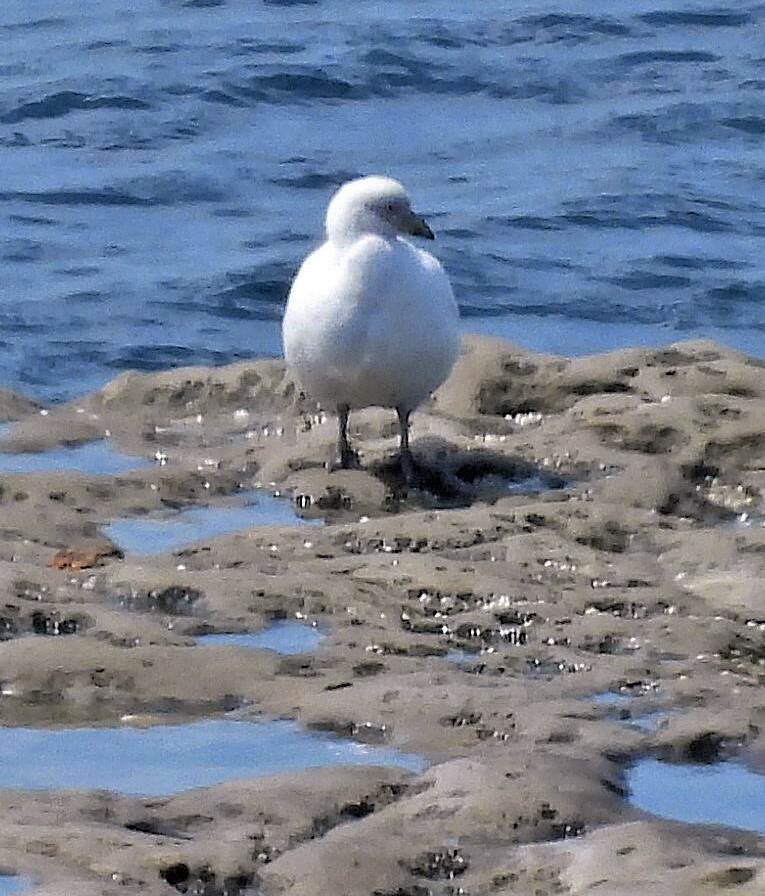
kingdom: Animalia
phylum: Chordata
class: Aves
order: Charadriiformes
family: Chionidae
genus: Chionis
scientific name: Chionis albus
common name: Snowy sheathbill
